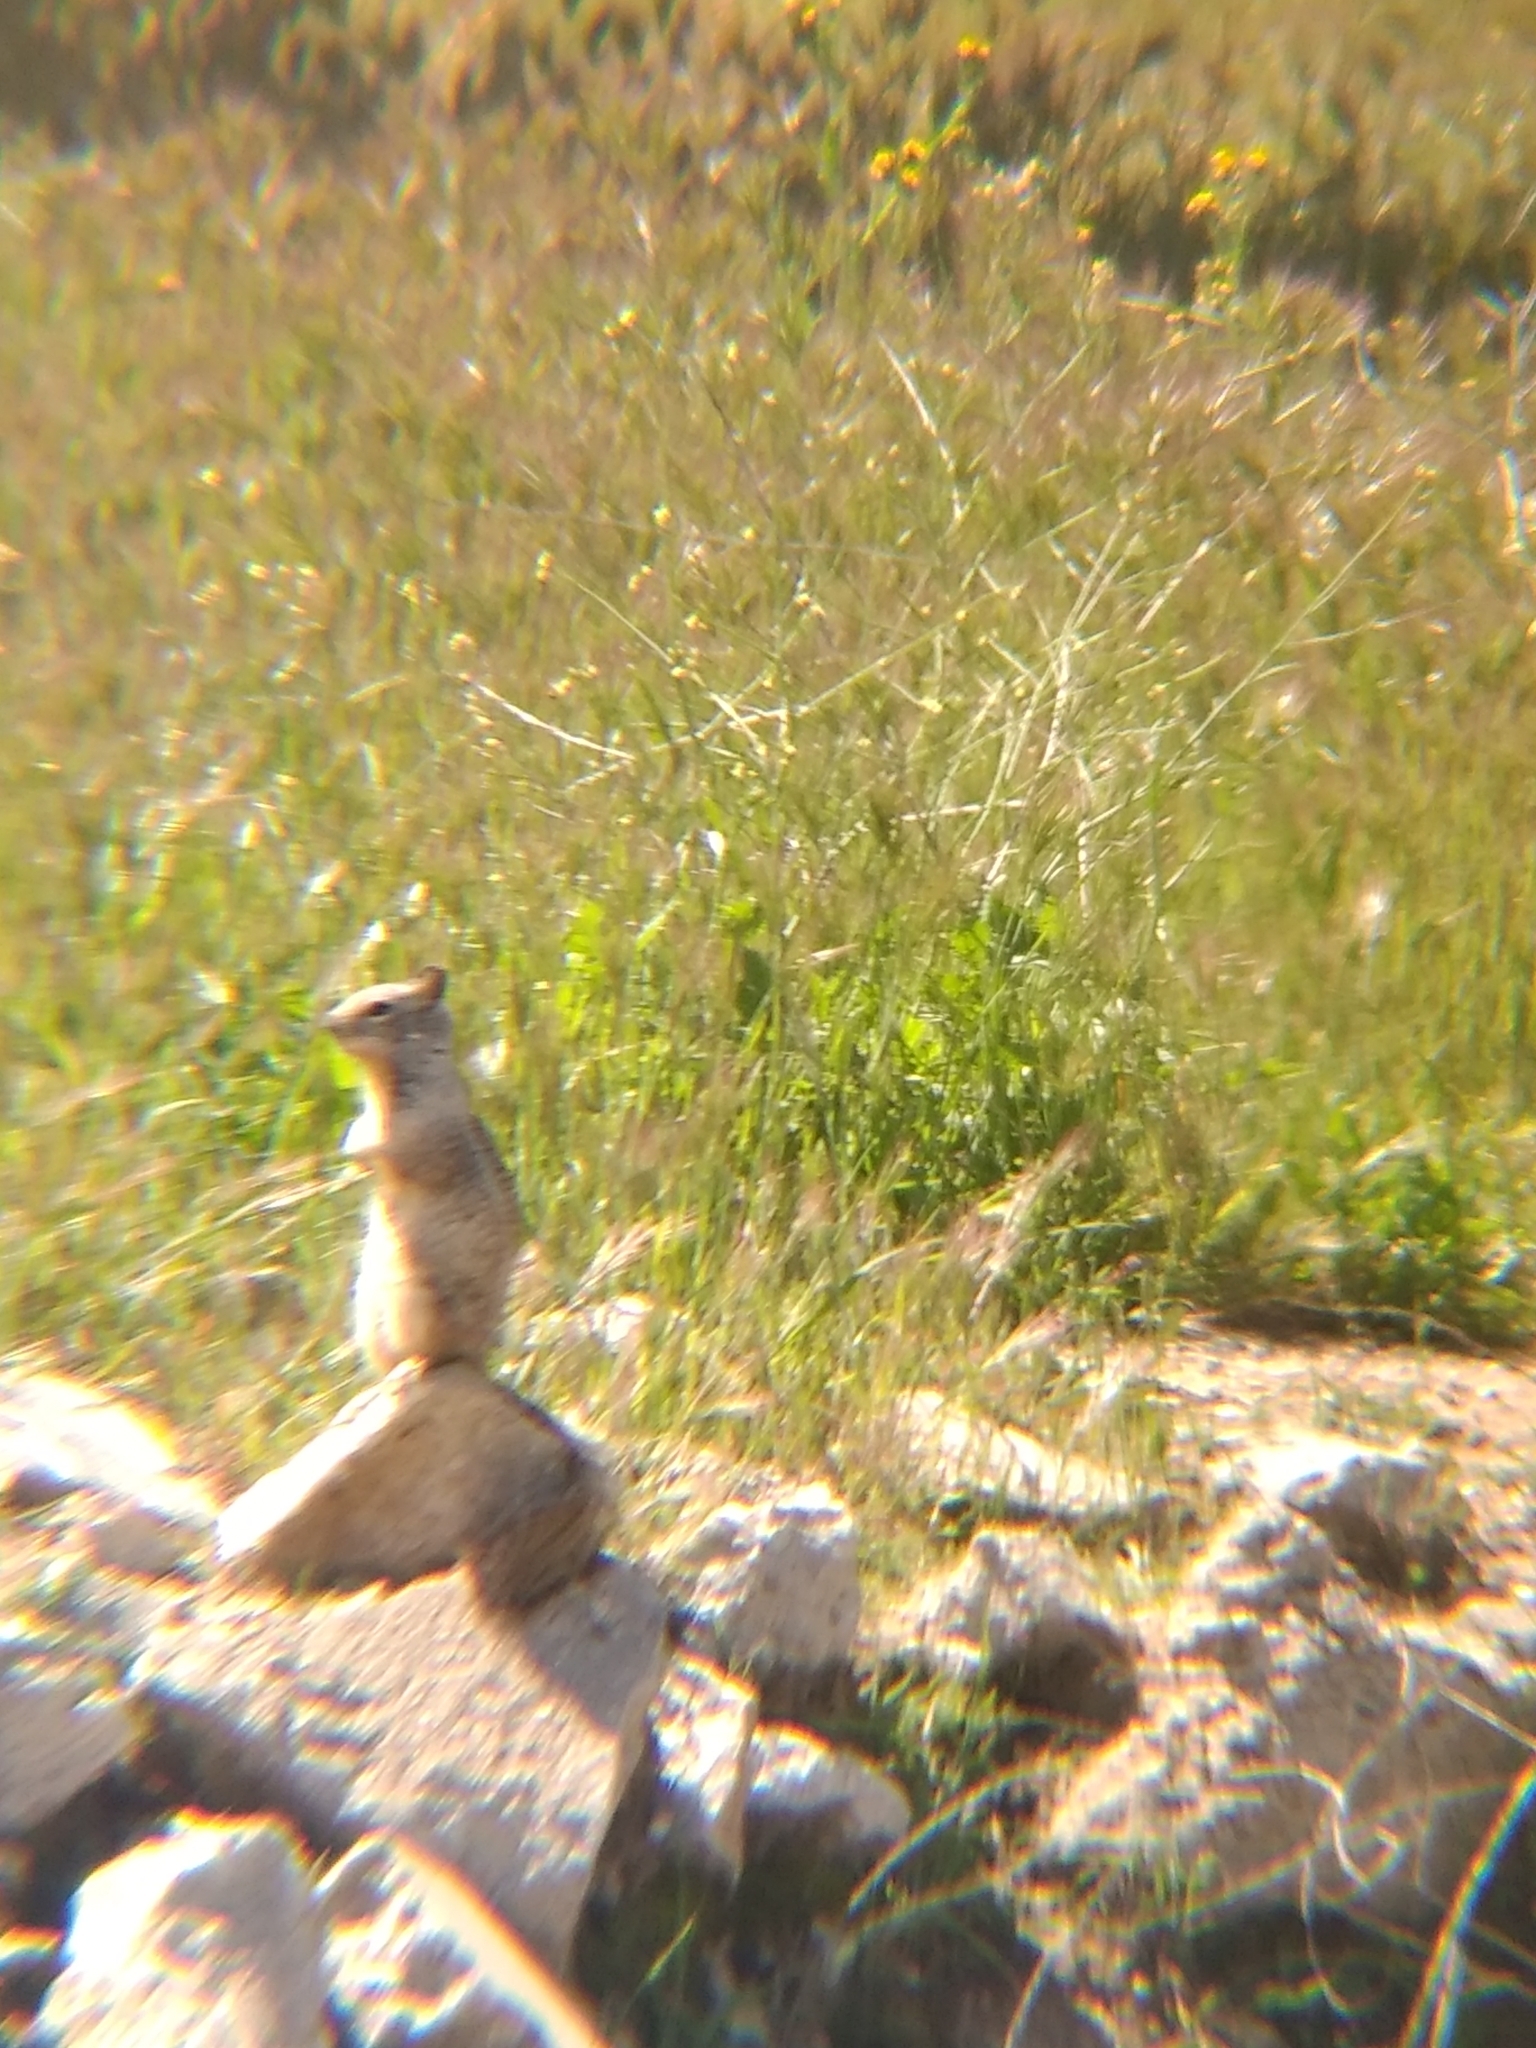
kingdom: Animalia
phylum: Chordata
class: Mammalia
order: Rodentia
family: Sciuridae
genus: Otospermophilus
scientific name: Otospermophilus beecheyi
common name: California ground squirrel
